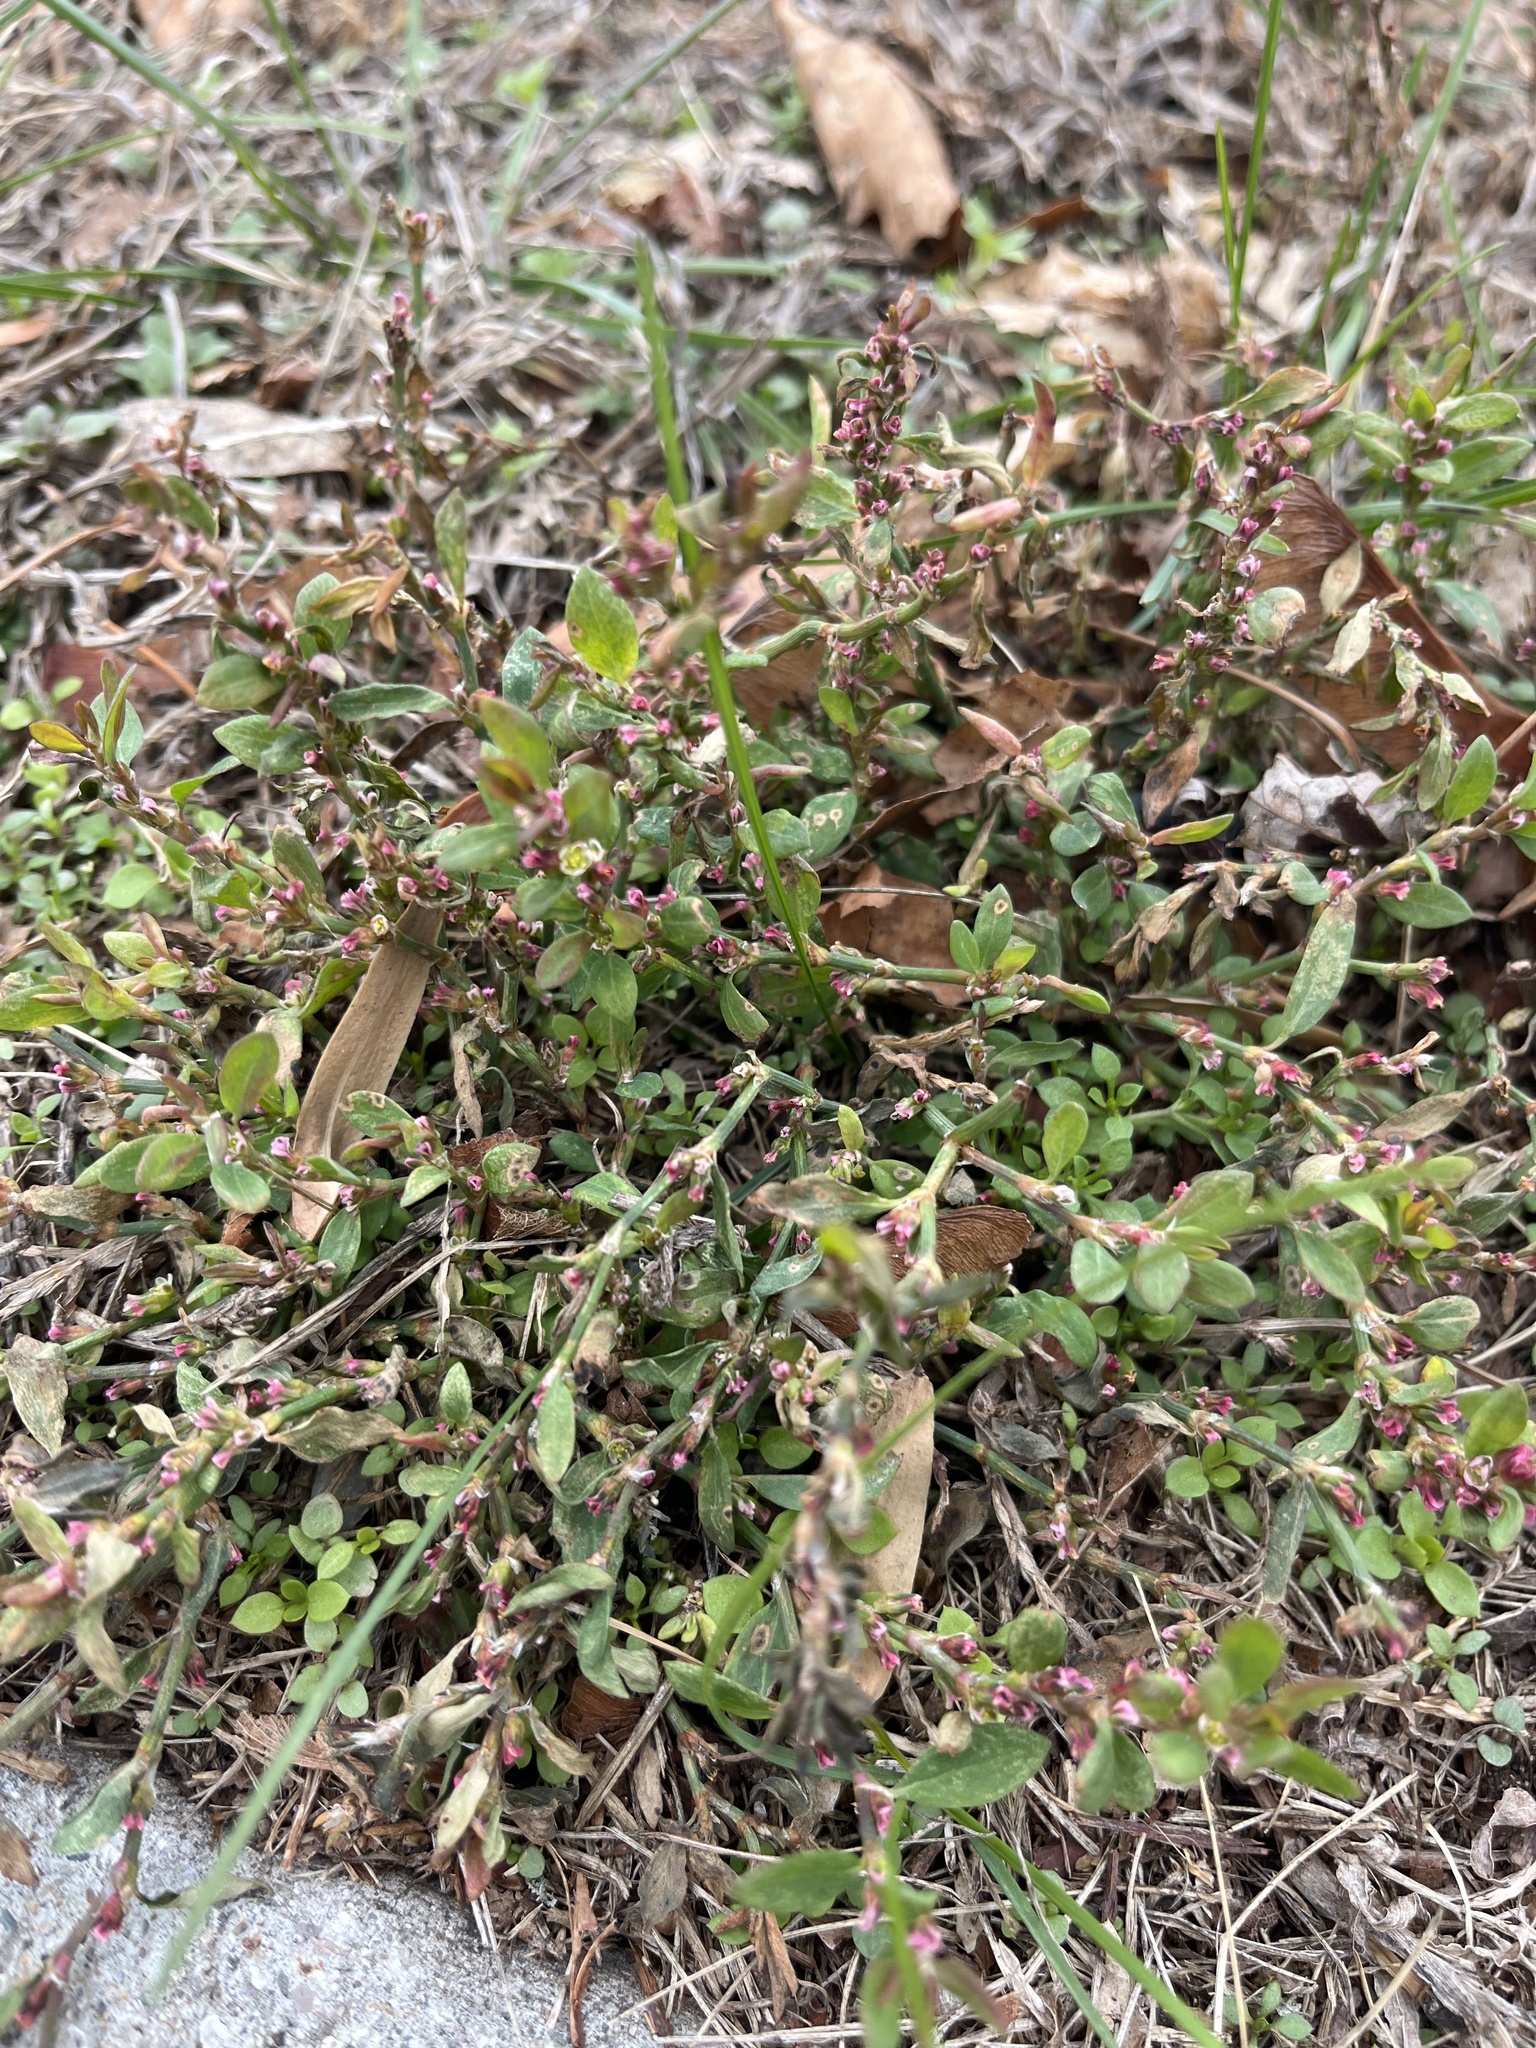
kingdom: Plantae
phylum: Tracheophyta
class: Magnoliopsida
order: Caryophyllales
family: Polygonaceae
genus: Polygonum
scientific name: Polygonum aviculare
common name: Prostrate knotweed
